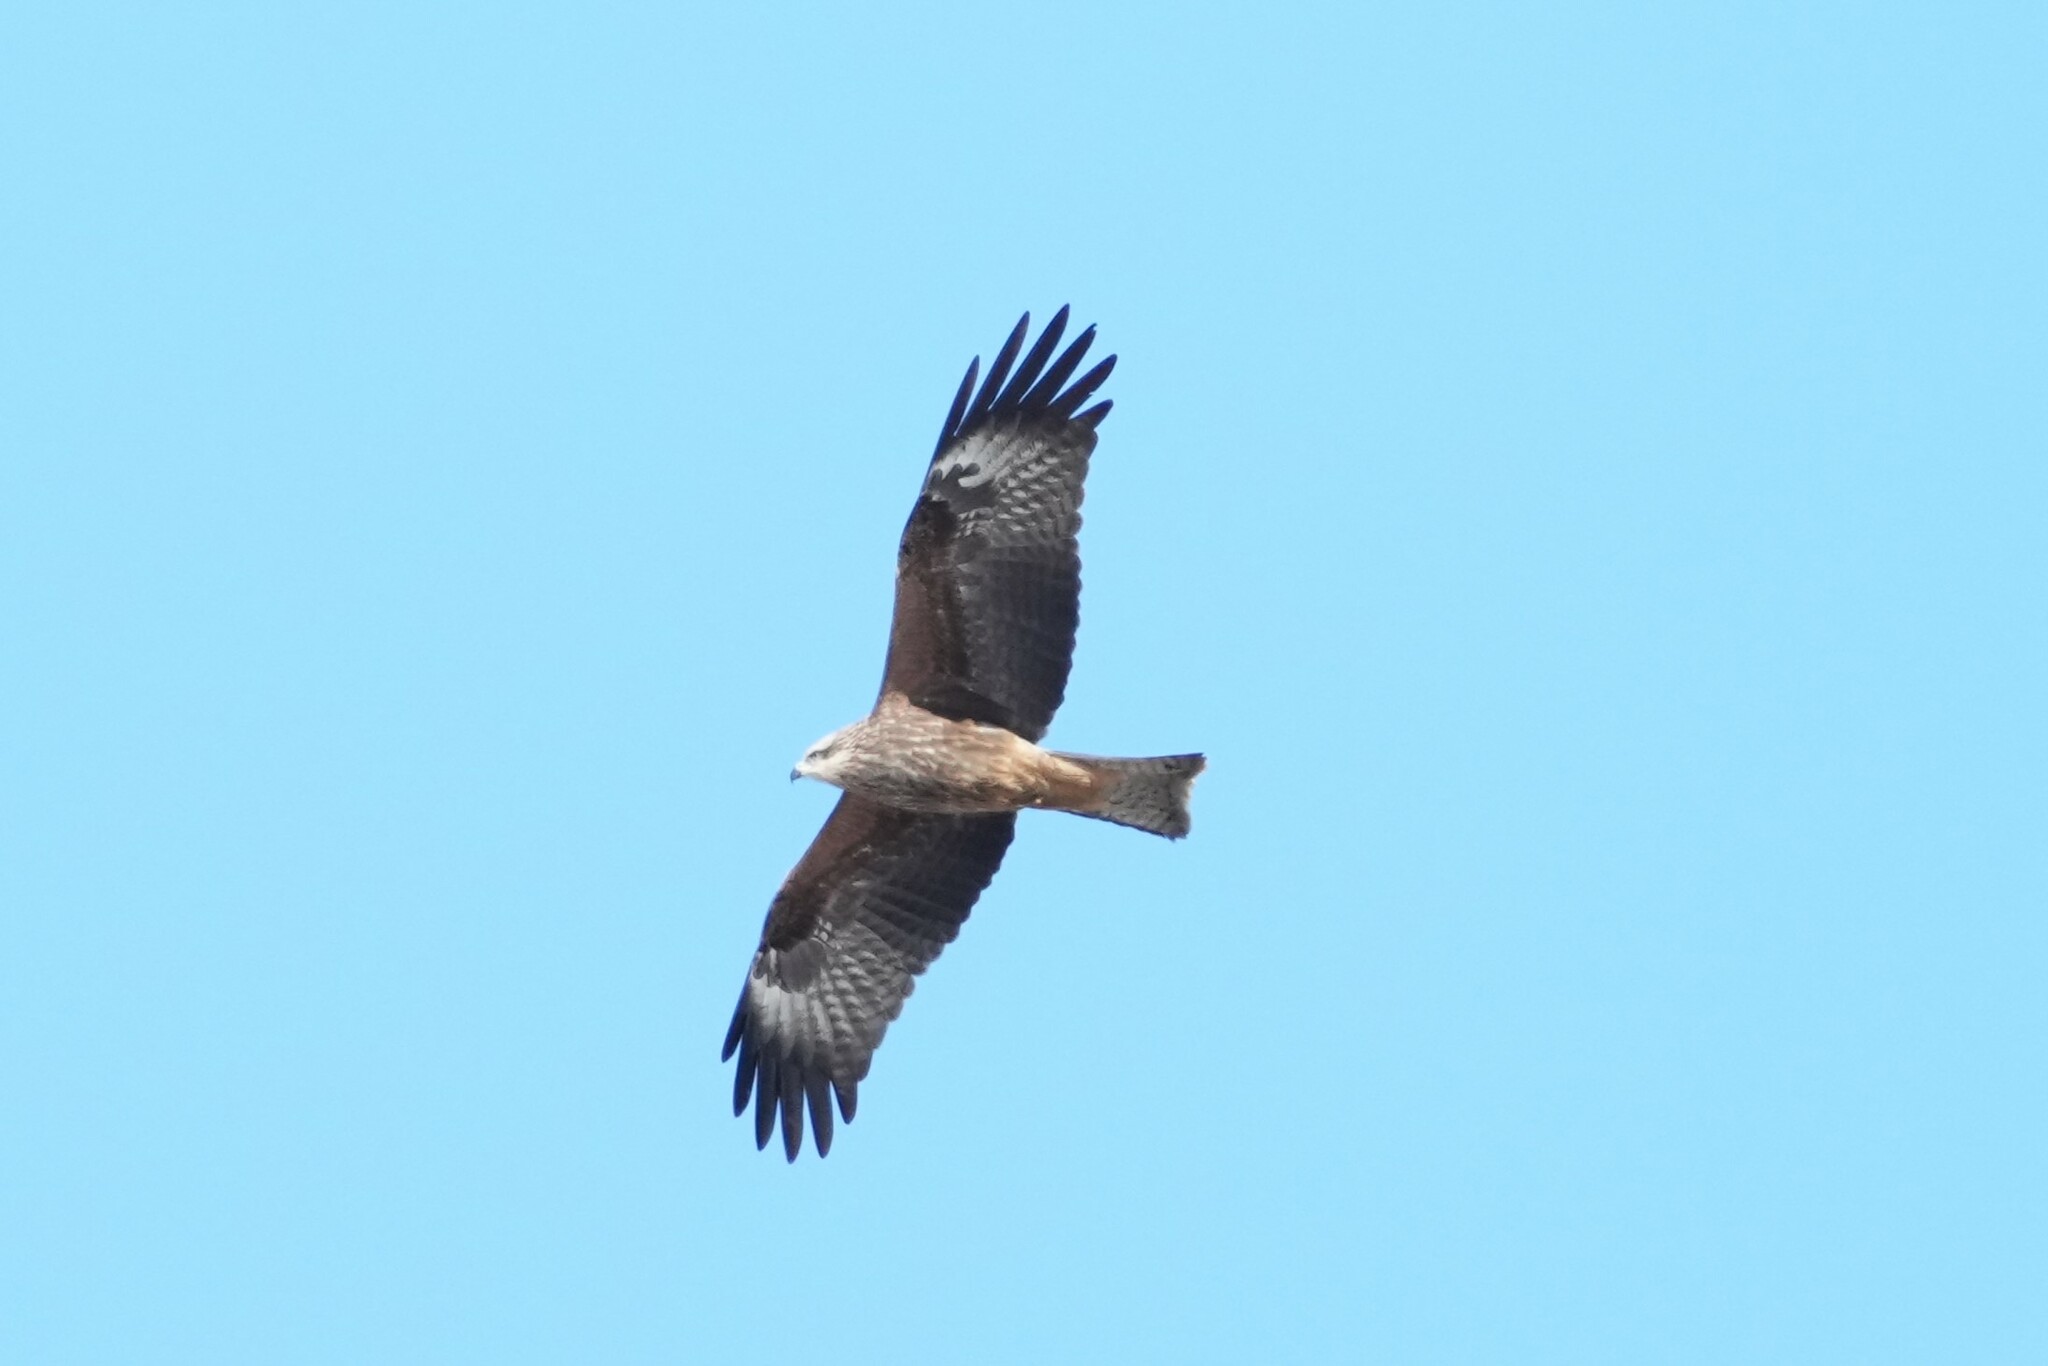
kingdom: Animalia
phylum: Chordata
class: Aves
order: Accipitriformes
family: Accipitridae
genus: Milvus
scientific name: Milvus migrans
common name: Black kite
